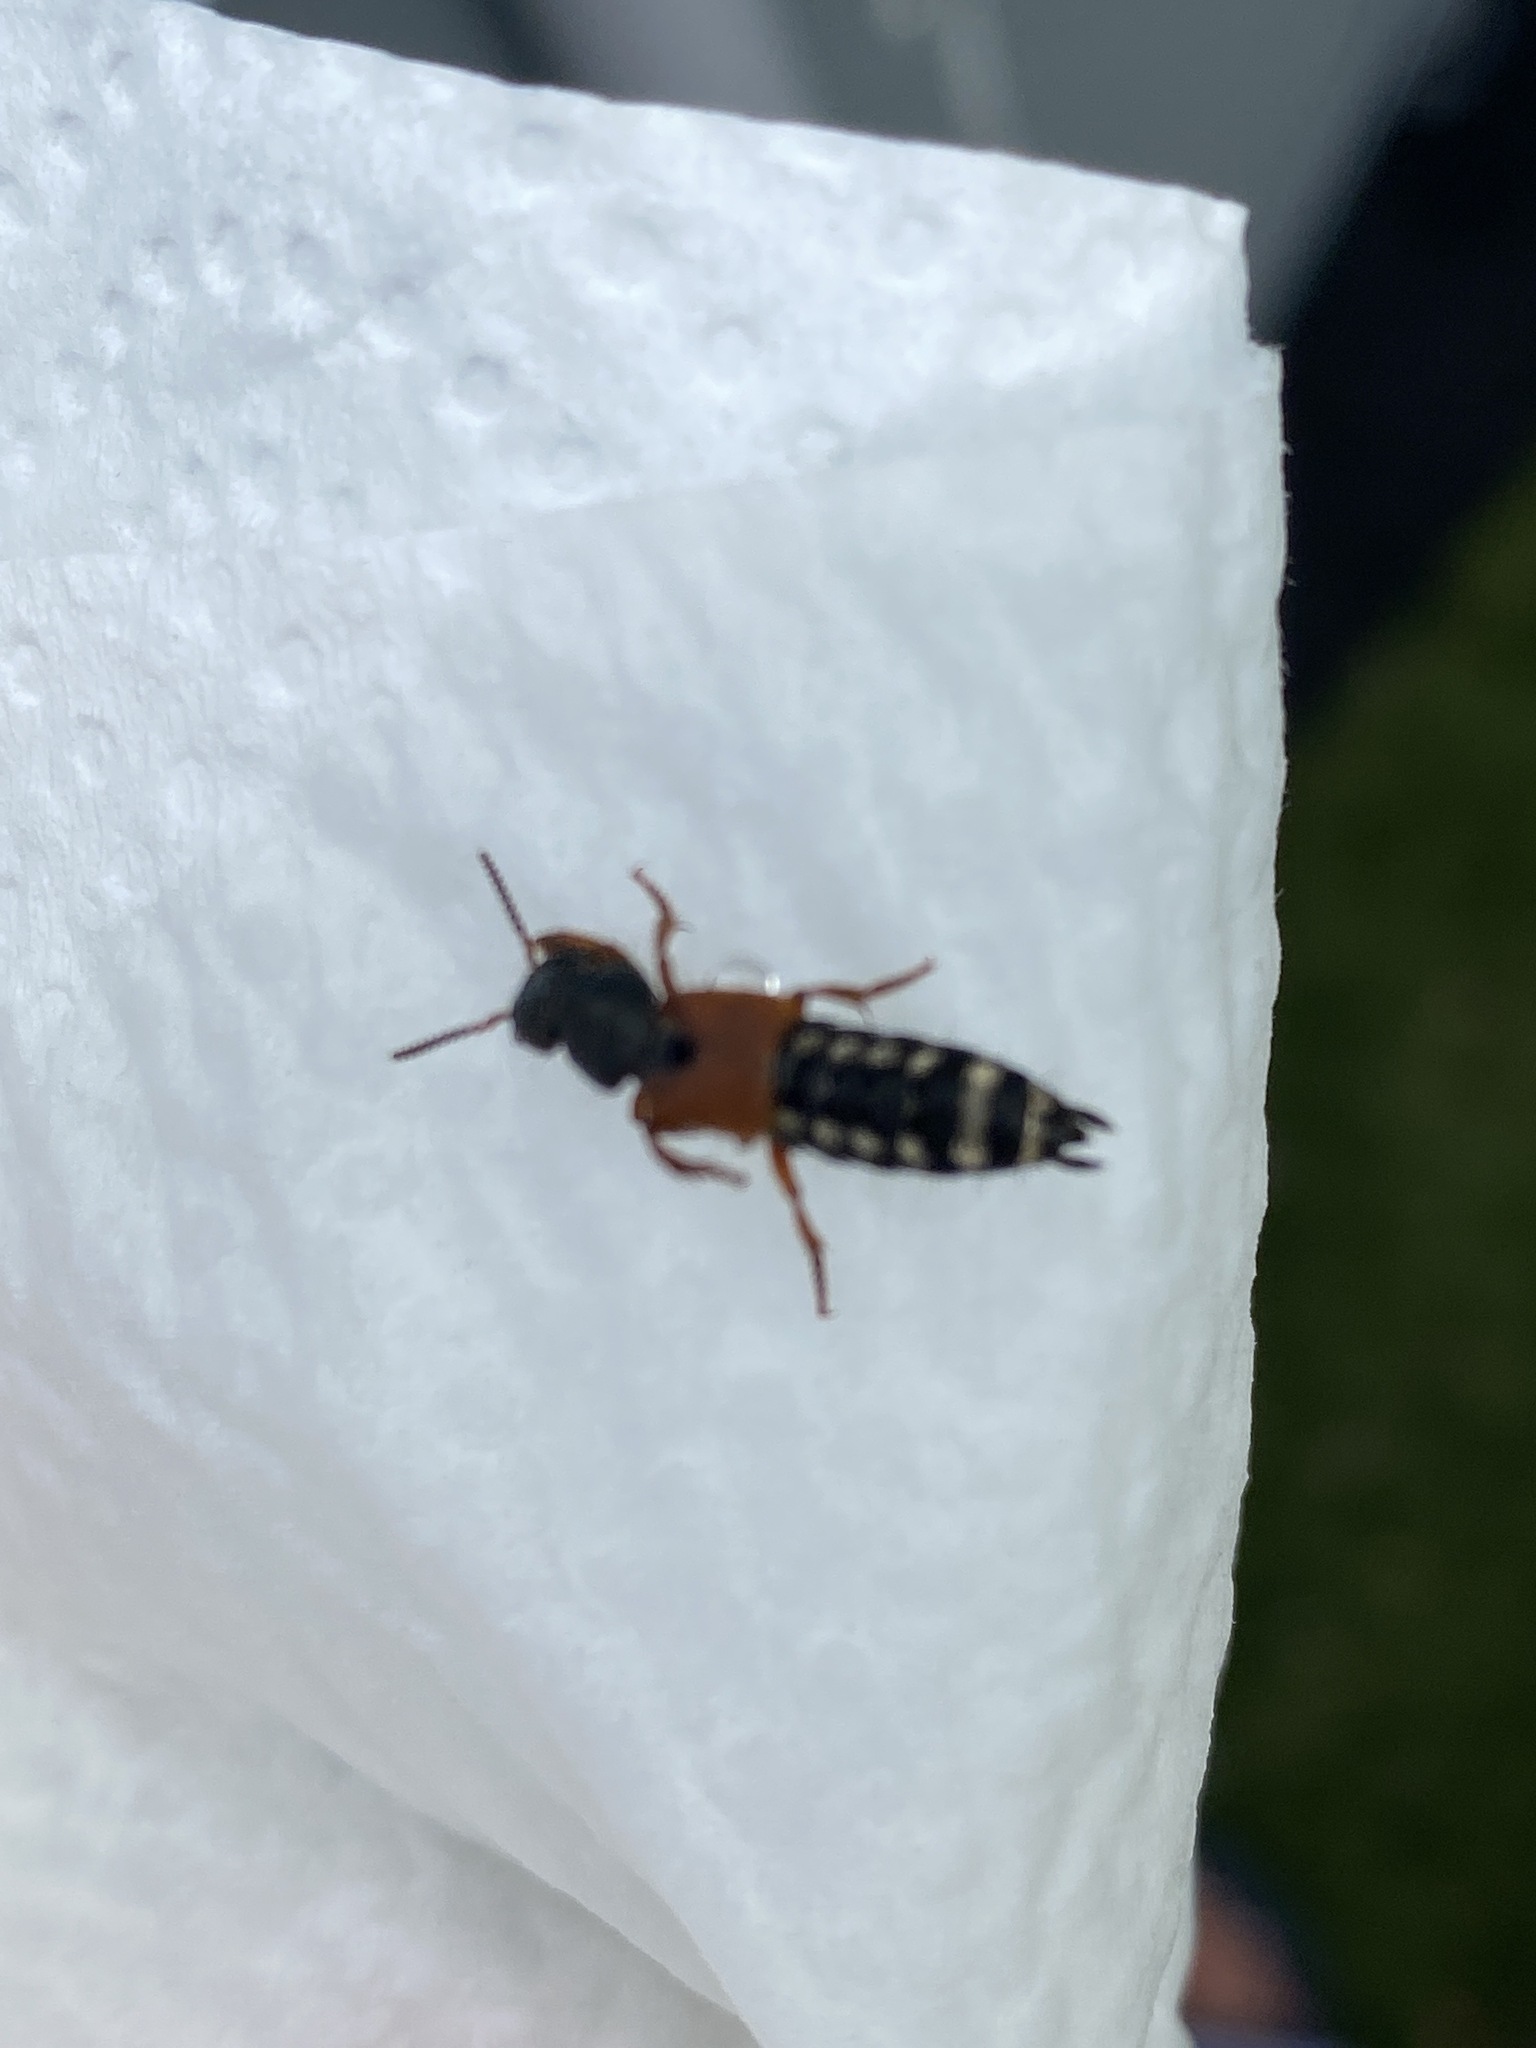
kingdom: Animalia
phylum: Arthropoda
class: Insecta
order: Coleoptera
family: Staphylinidae
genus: Platydracus
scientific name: Platydracus stercorarius
